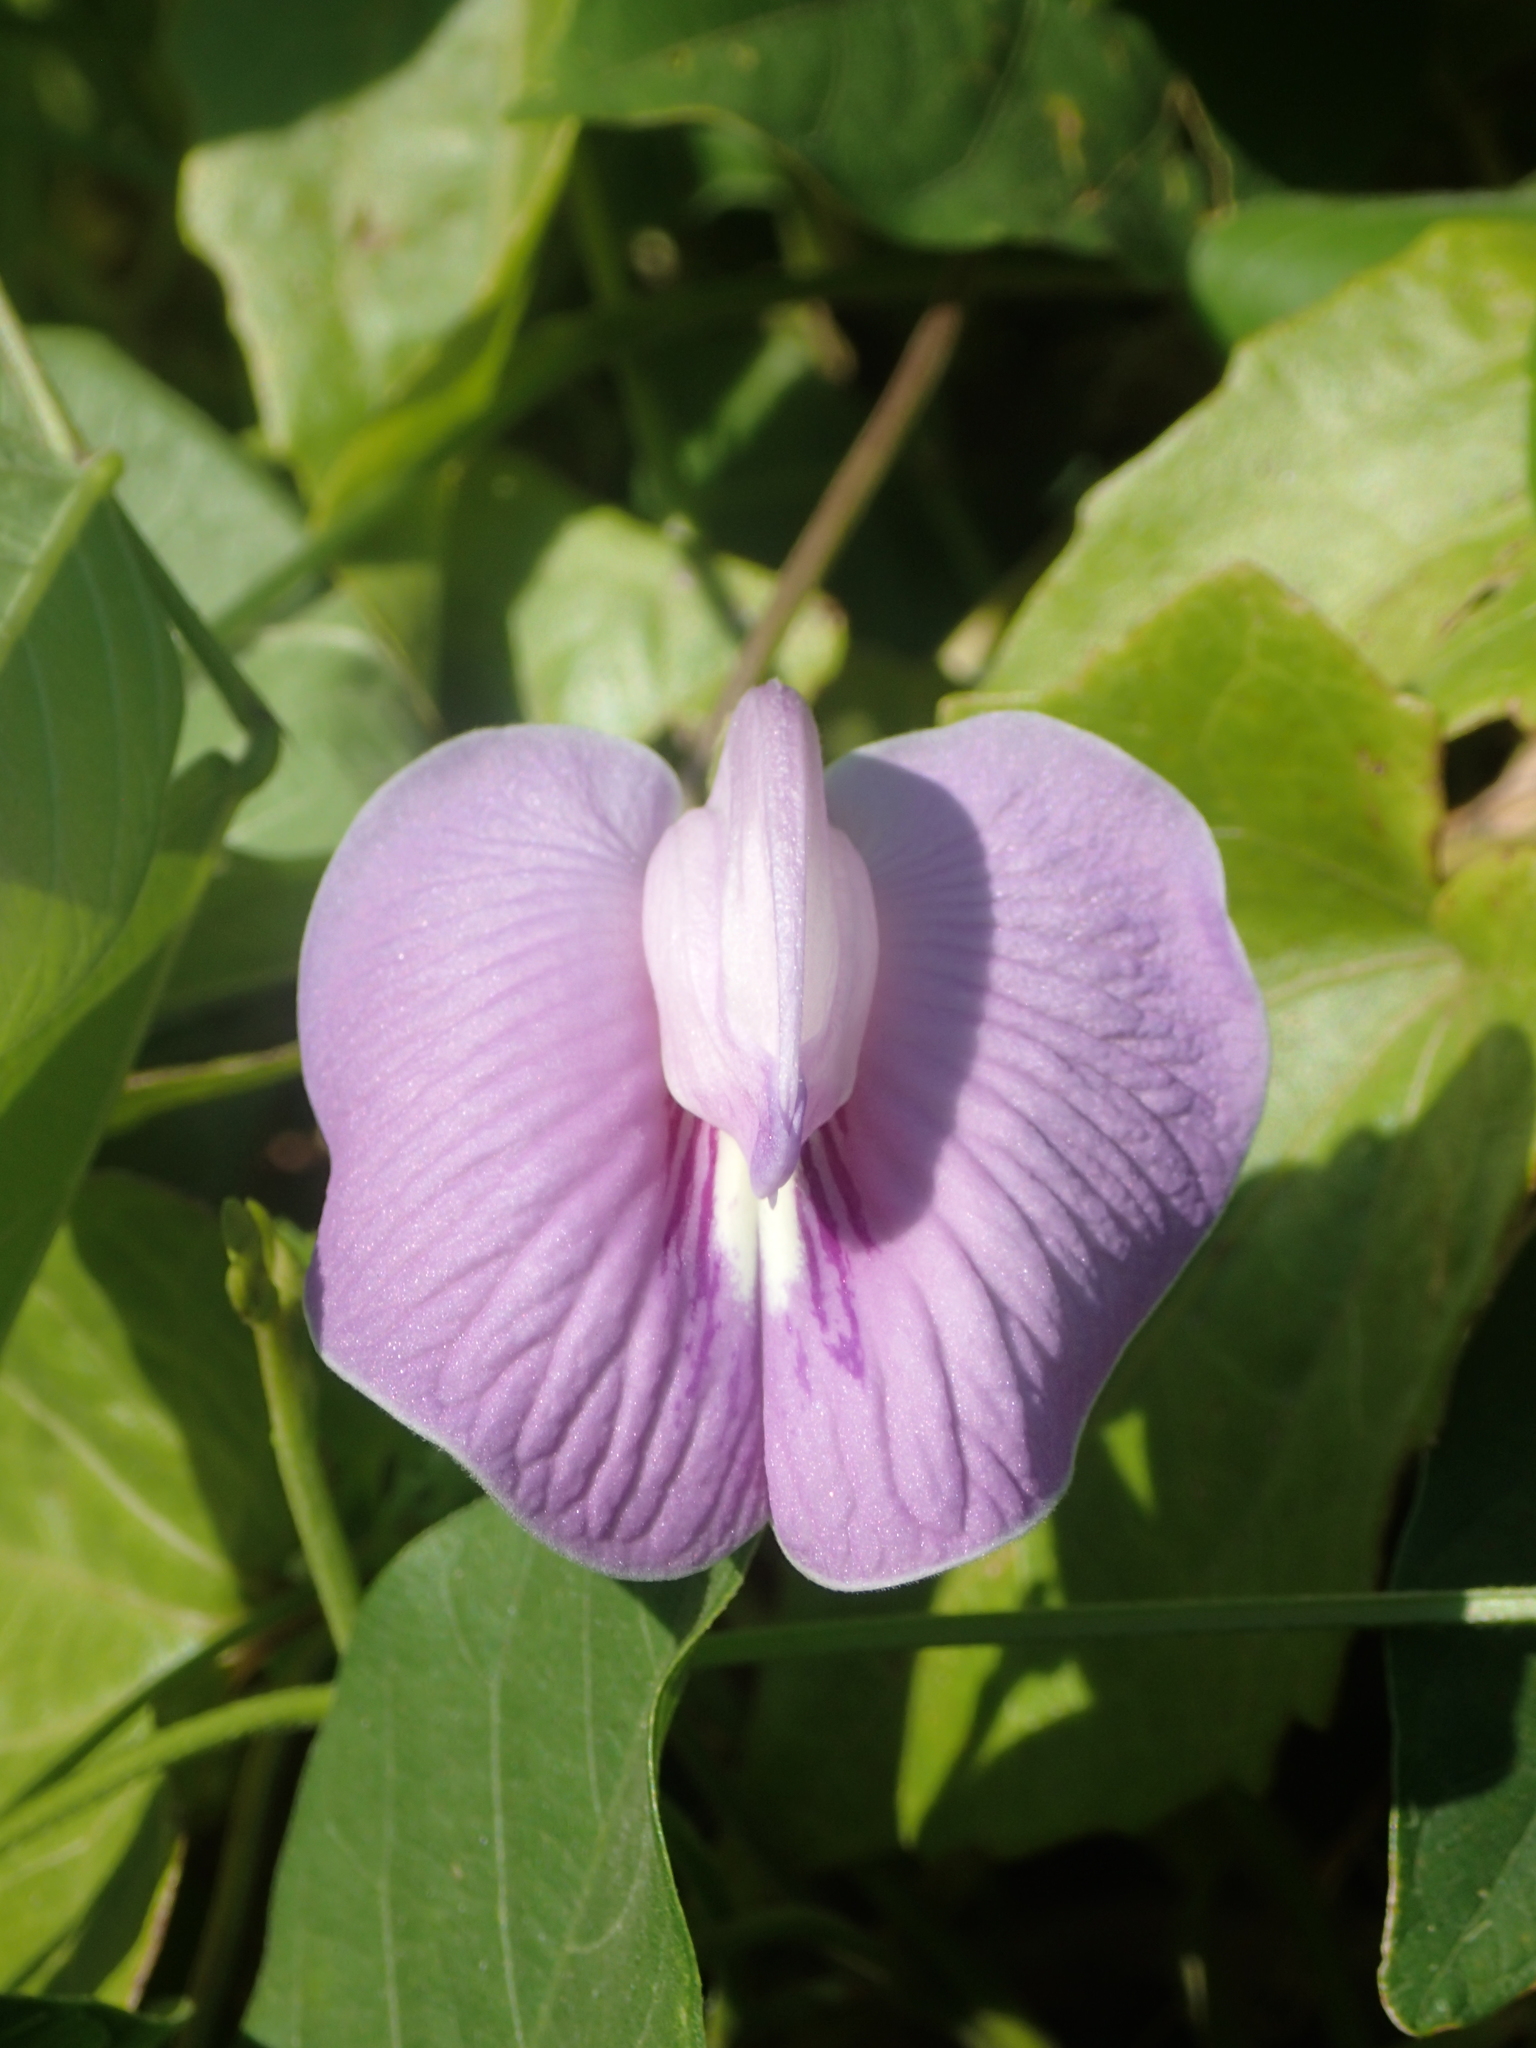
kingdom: Plantae
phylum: Tracheophyta
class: Magnoliopsida
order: Fabales
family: Fabaceae
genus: Centrosema
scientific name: Centrosema pubescens
